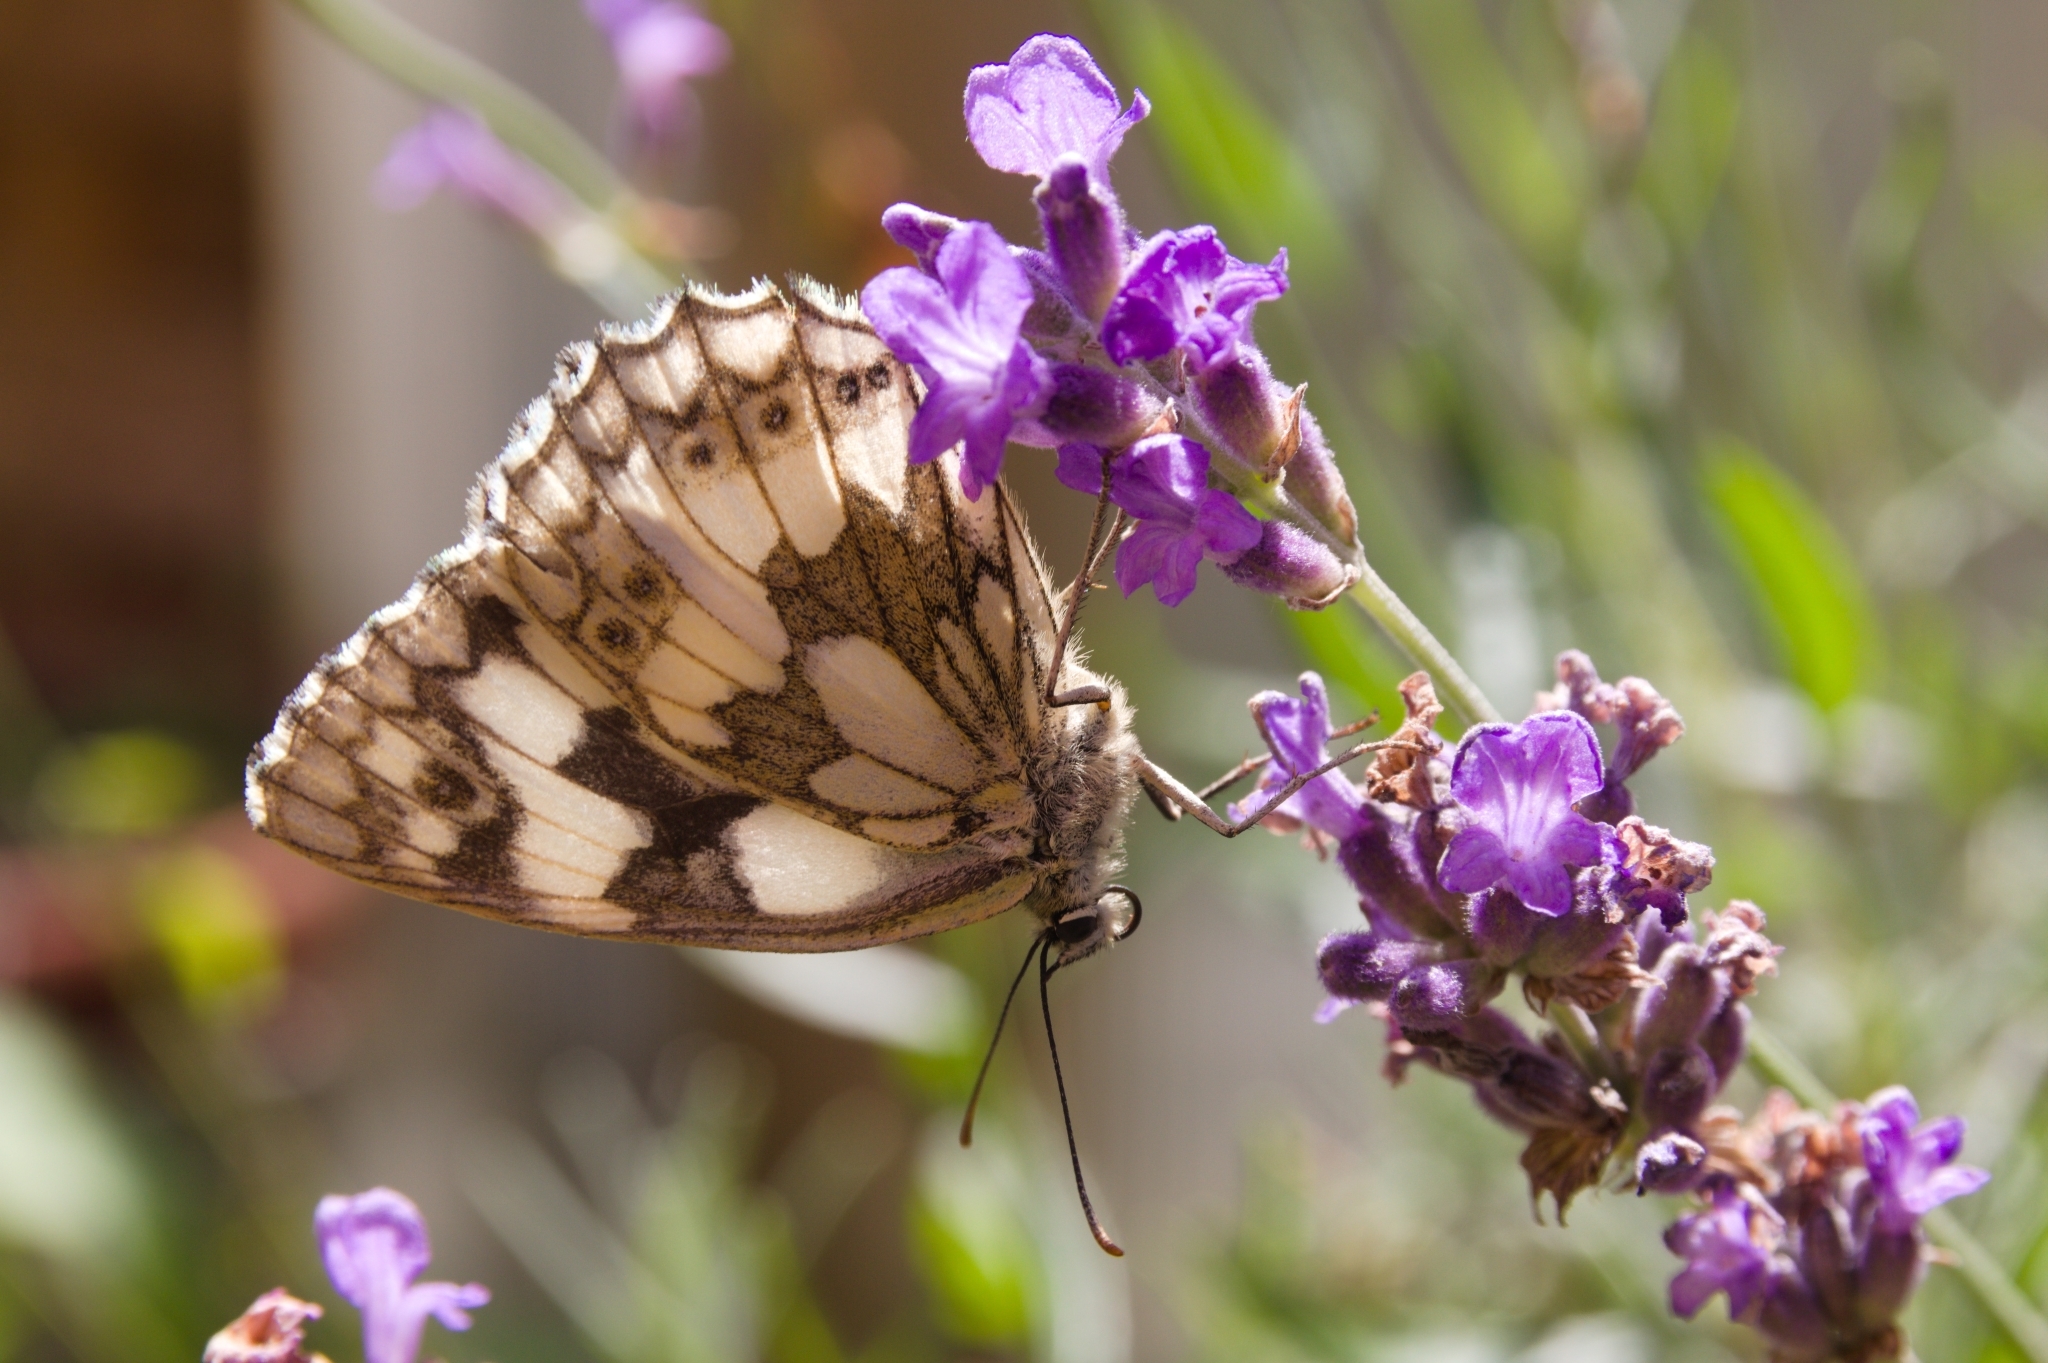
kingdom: Animalia
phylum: Arthropoda
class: Insecta
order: Lepidoptera
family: Nymphalidae
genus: Melanargia
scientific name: Melanargia galathea
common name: Marbled white
